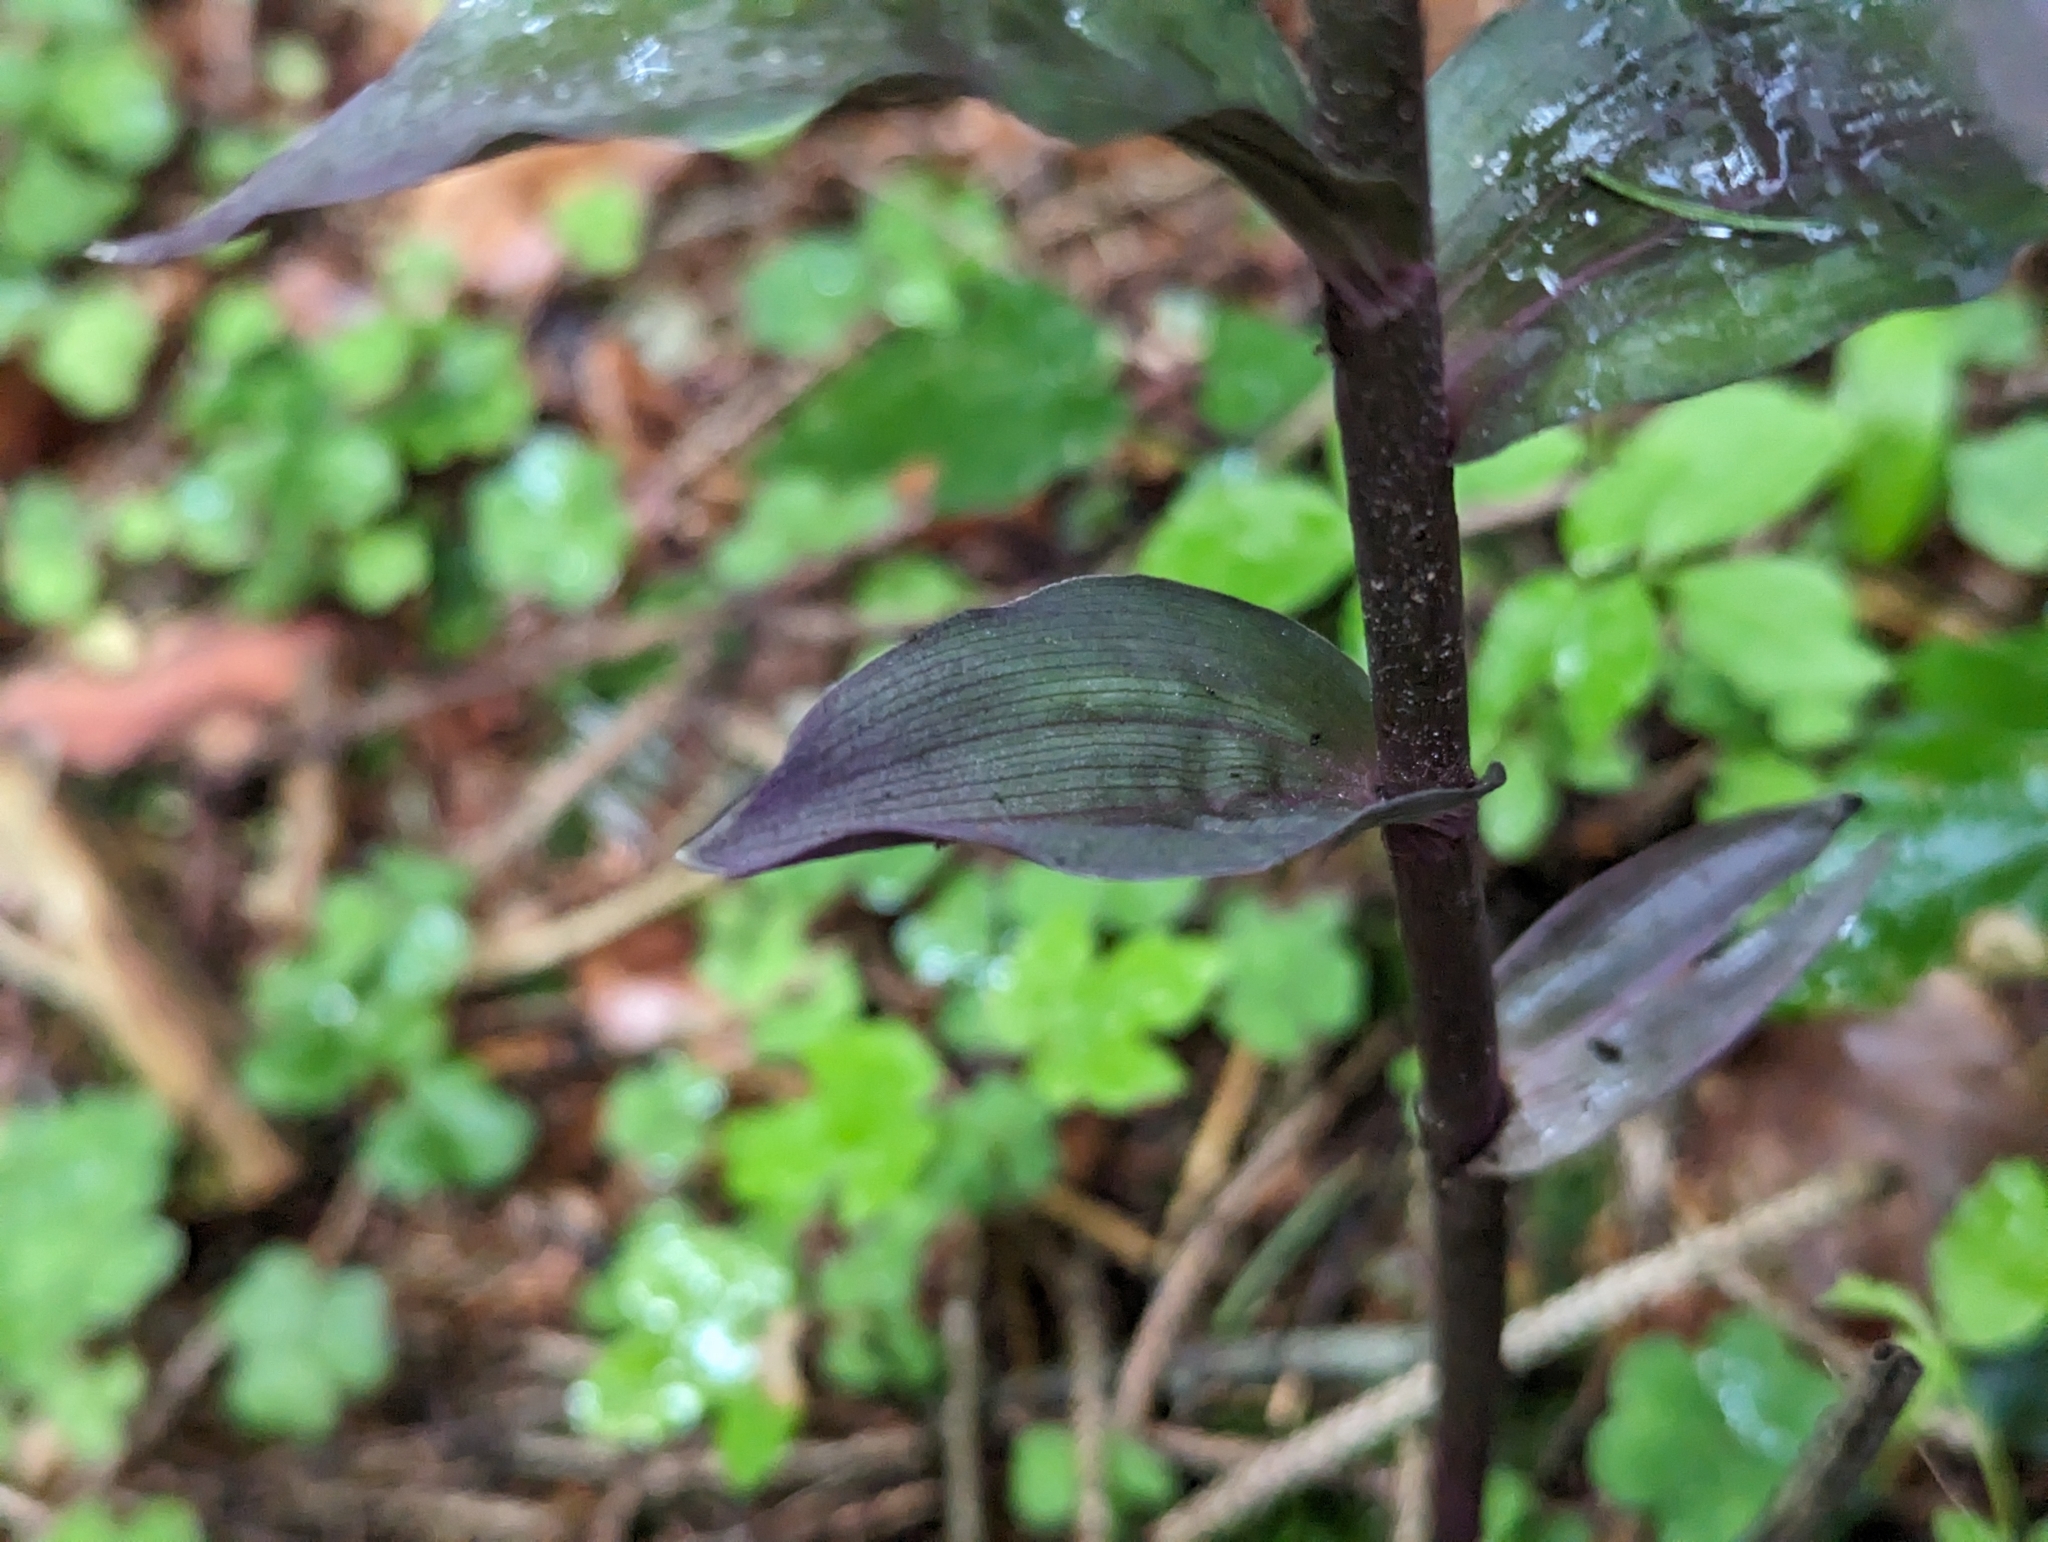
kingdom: Plantae
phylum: Tracheophyta
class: Liliopsida
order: Asparagales
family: Orchidaceae
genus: Epipactis
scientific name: Epipactis purpurata
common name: Violet helleborine
